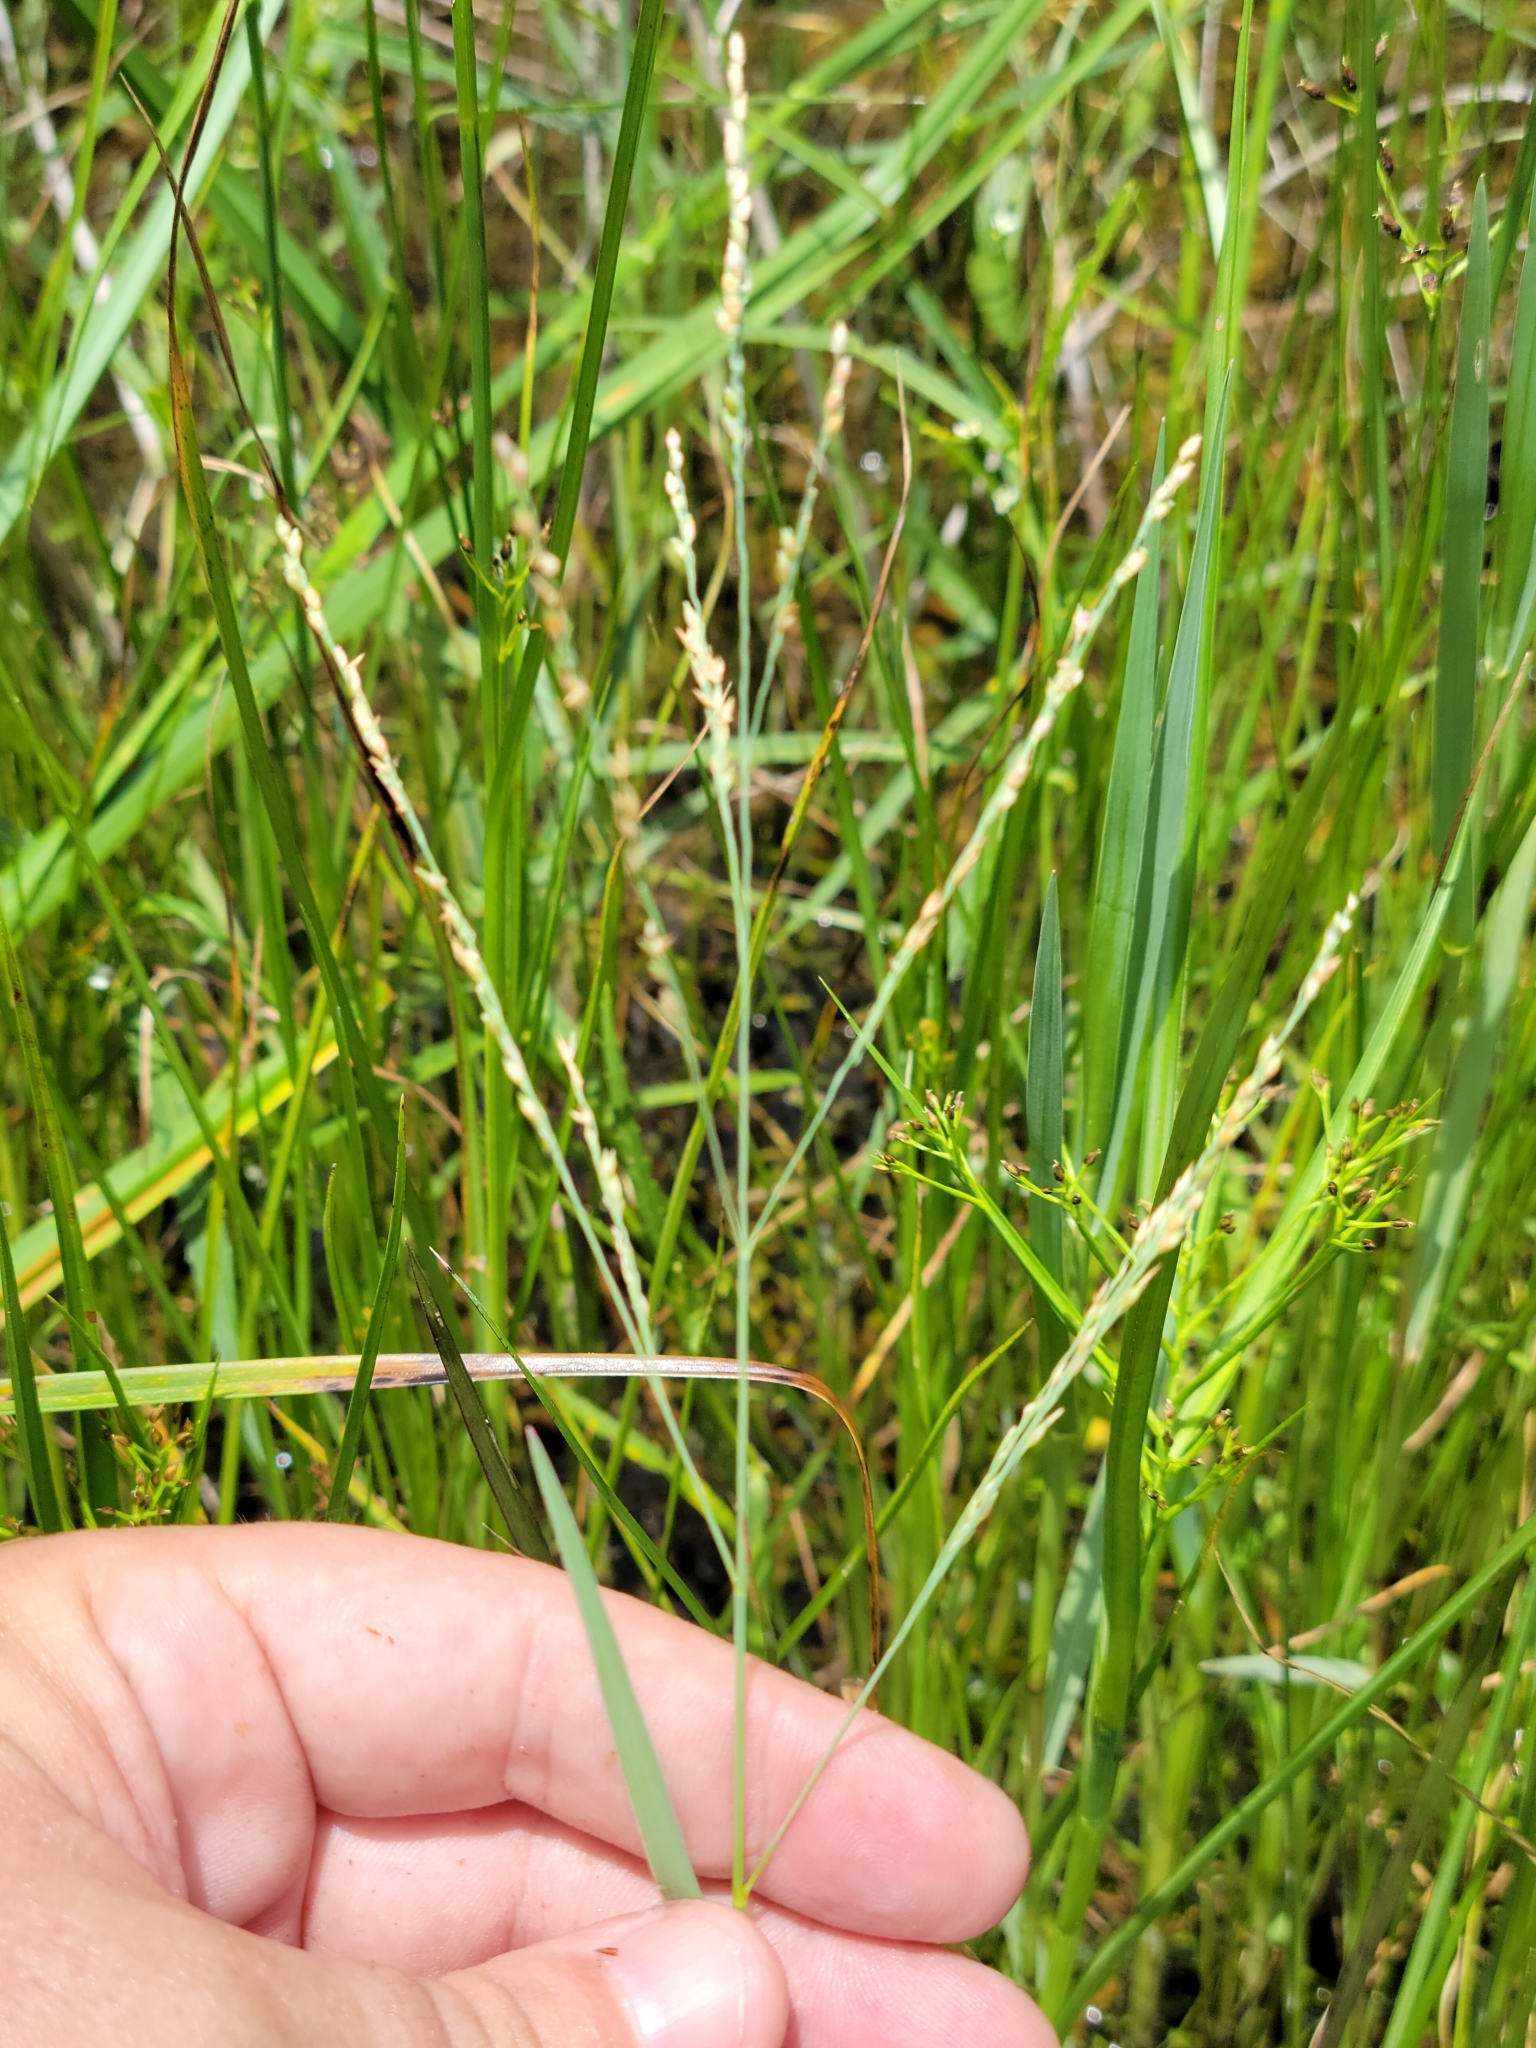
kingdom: Plantae
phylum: Tracheophyta
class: Liliopsida
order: Poales
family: Poaceae
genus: Panicum
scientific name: Panicum repens
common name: Torpedo grass
